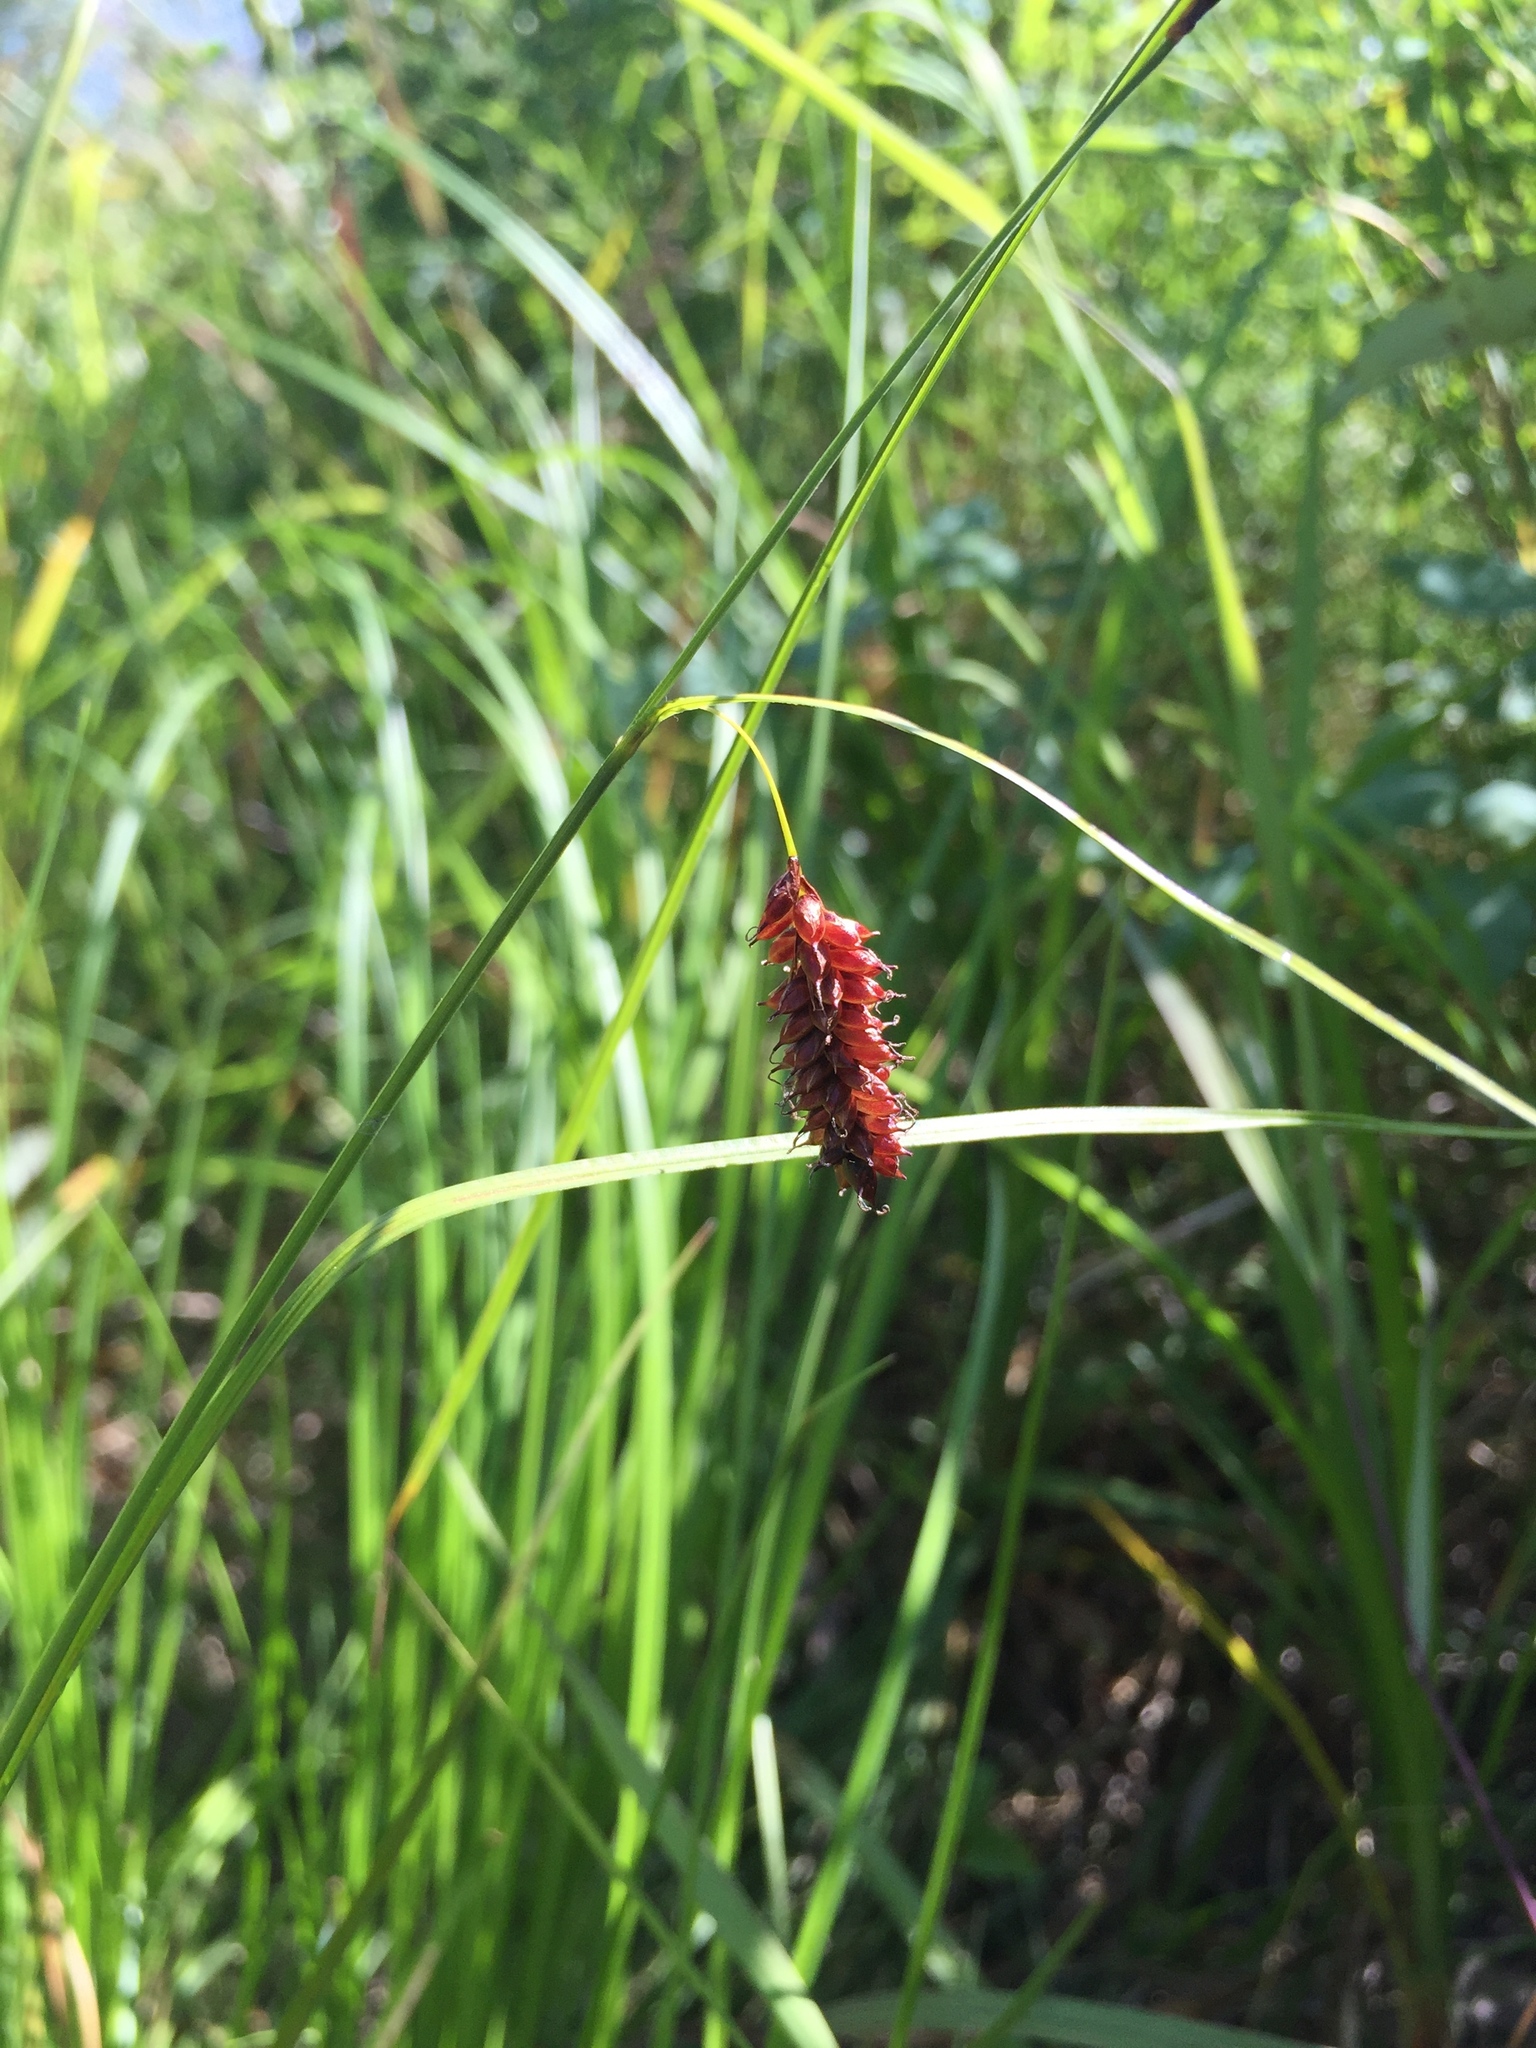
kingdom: Plantae
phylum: Tracheophyta
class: Liliopsida
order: Poales
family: Cyperaceae
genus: Carex
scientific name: Carex saxatilis
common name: Russet sedge
